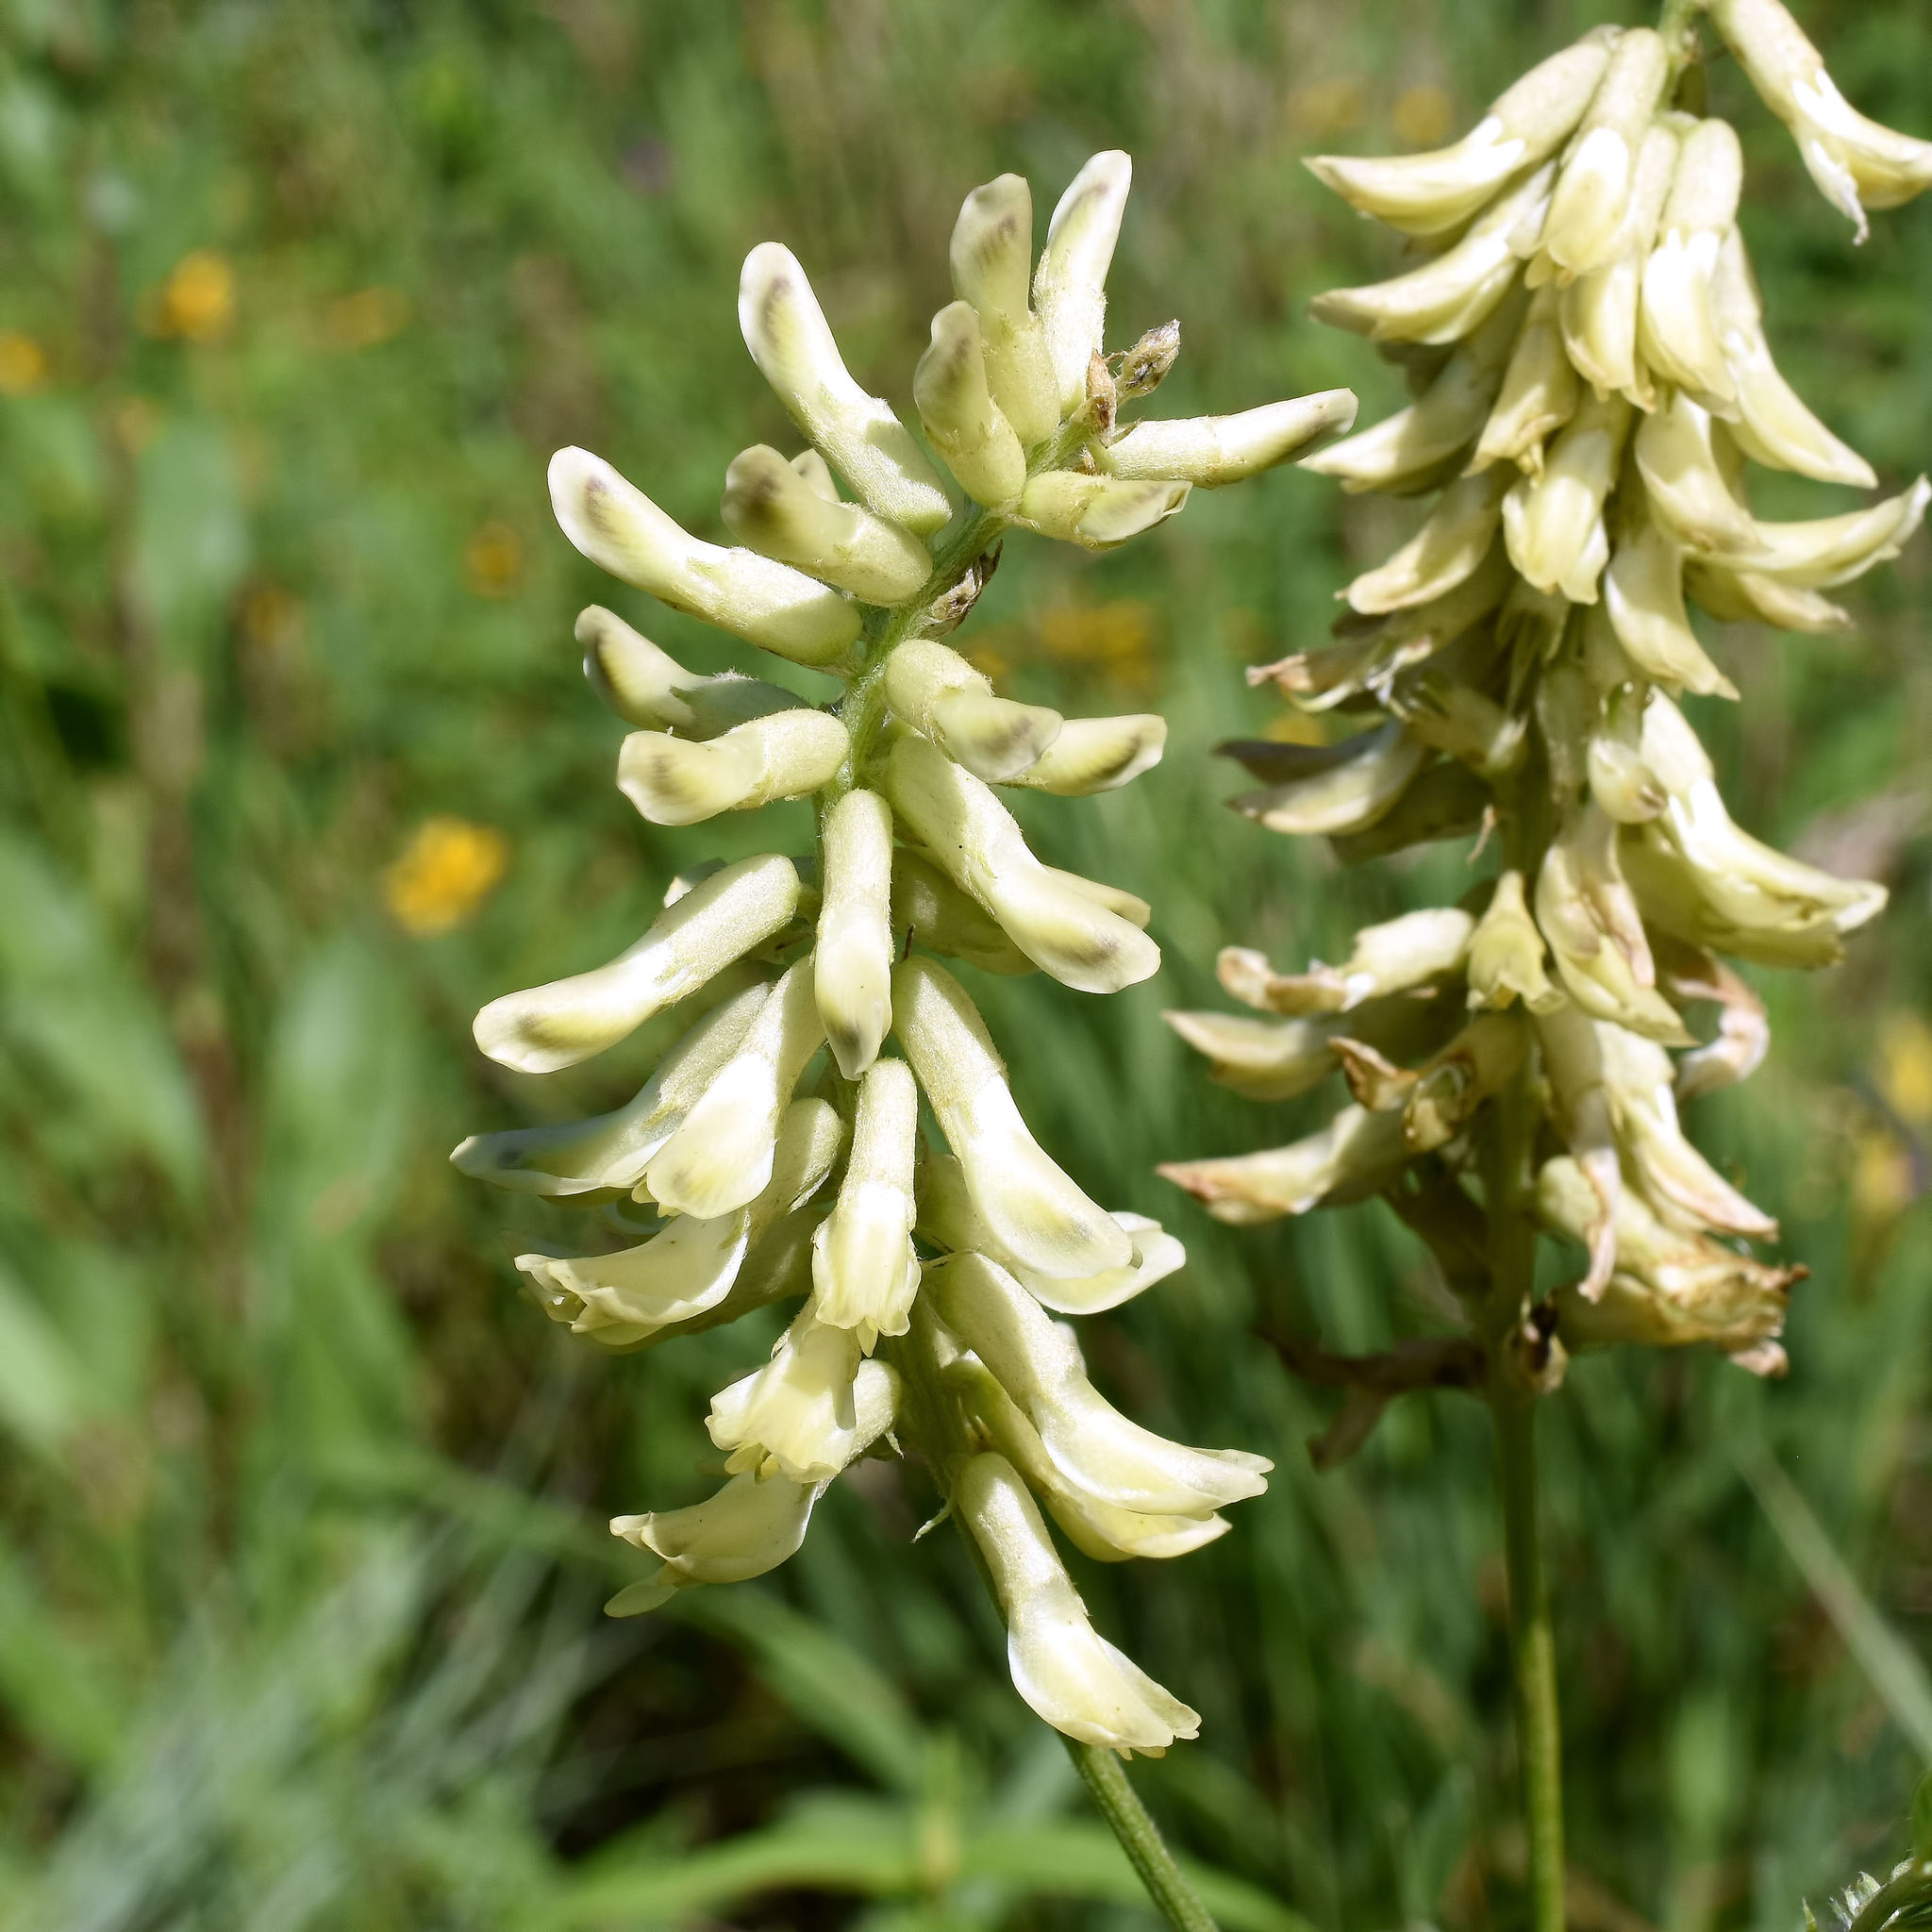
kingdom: Plantae
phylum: Tracheophyta
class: Magnoliopsida
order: Fabales
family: Fabaceae
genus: Astragalus
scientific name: Astragalus canadensis
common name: Canada milk-vetch
